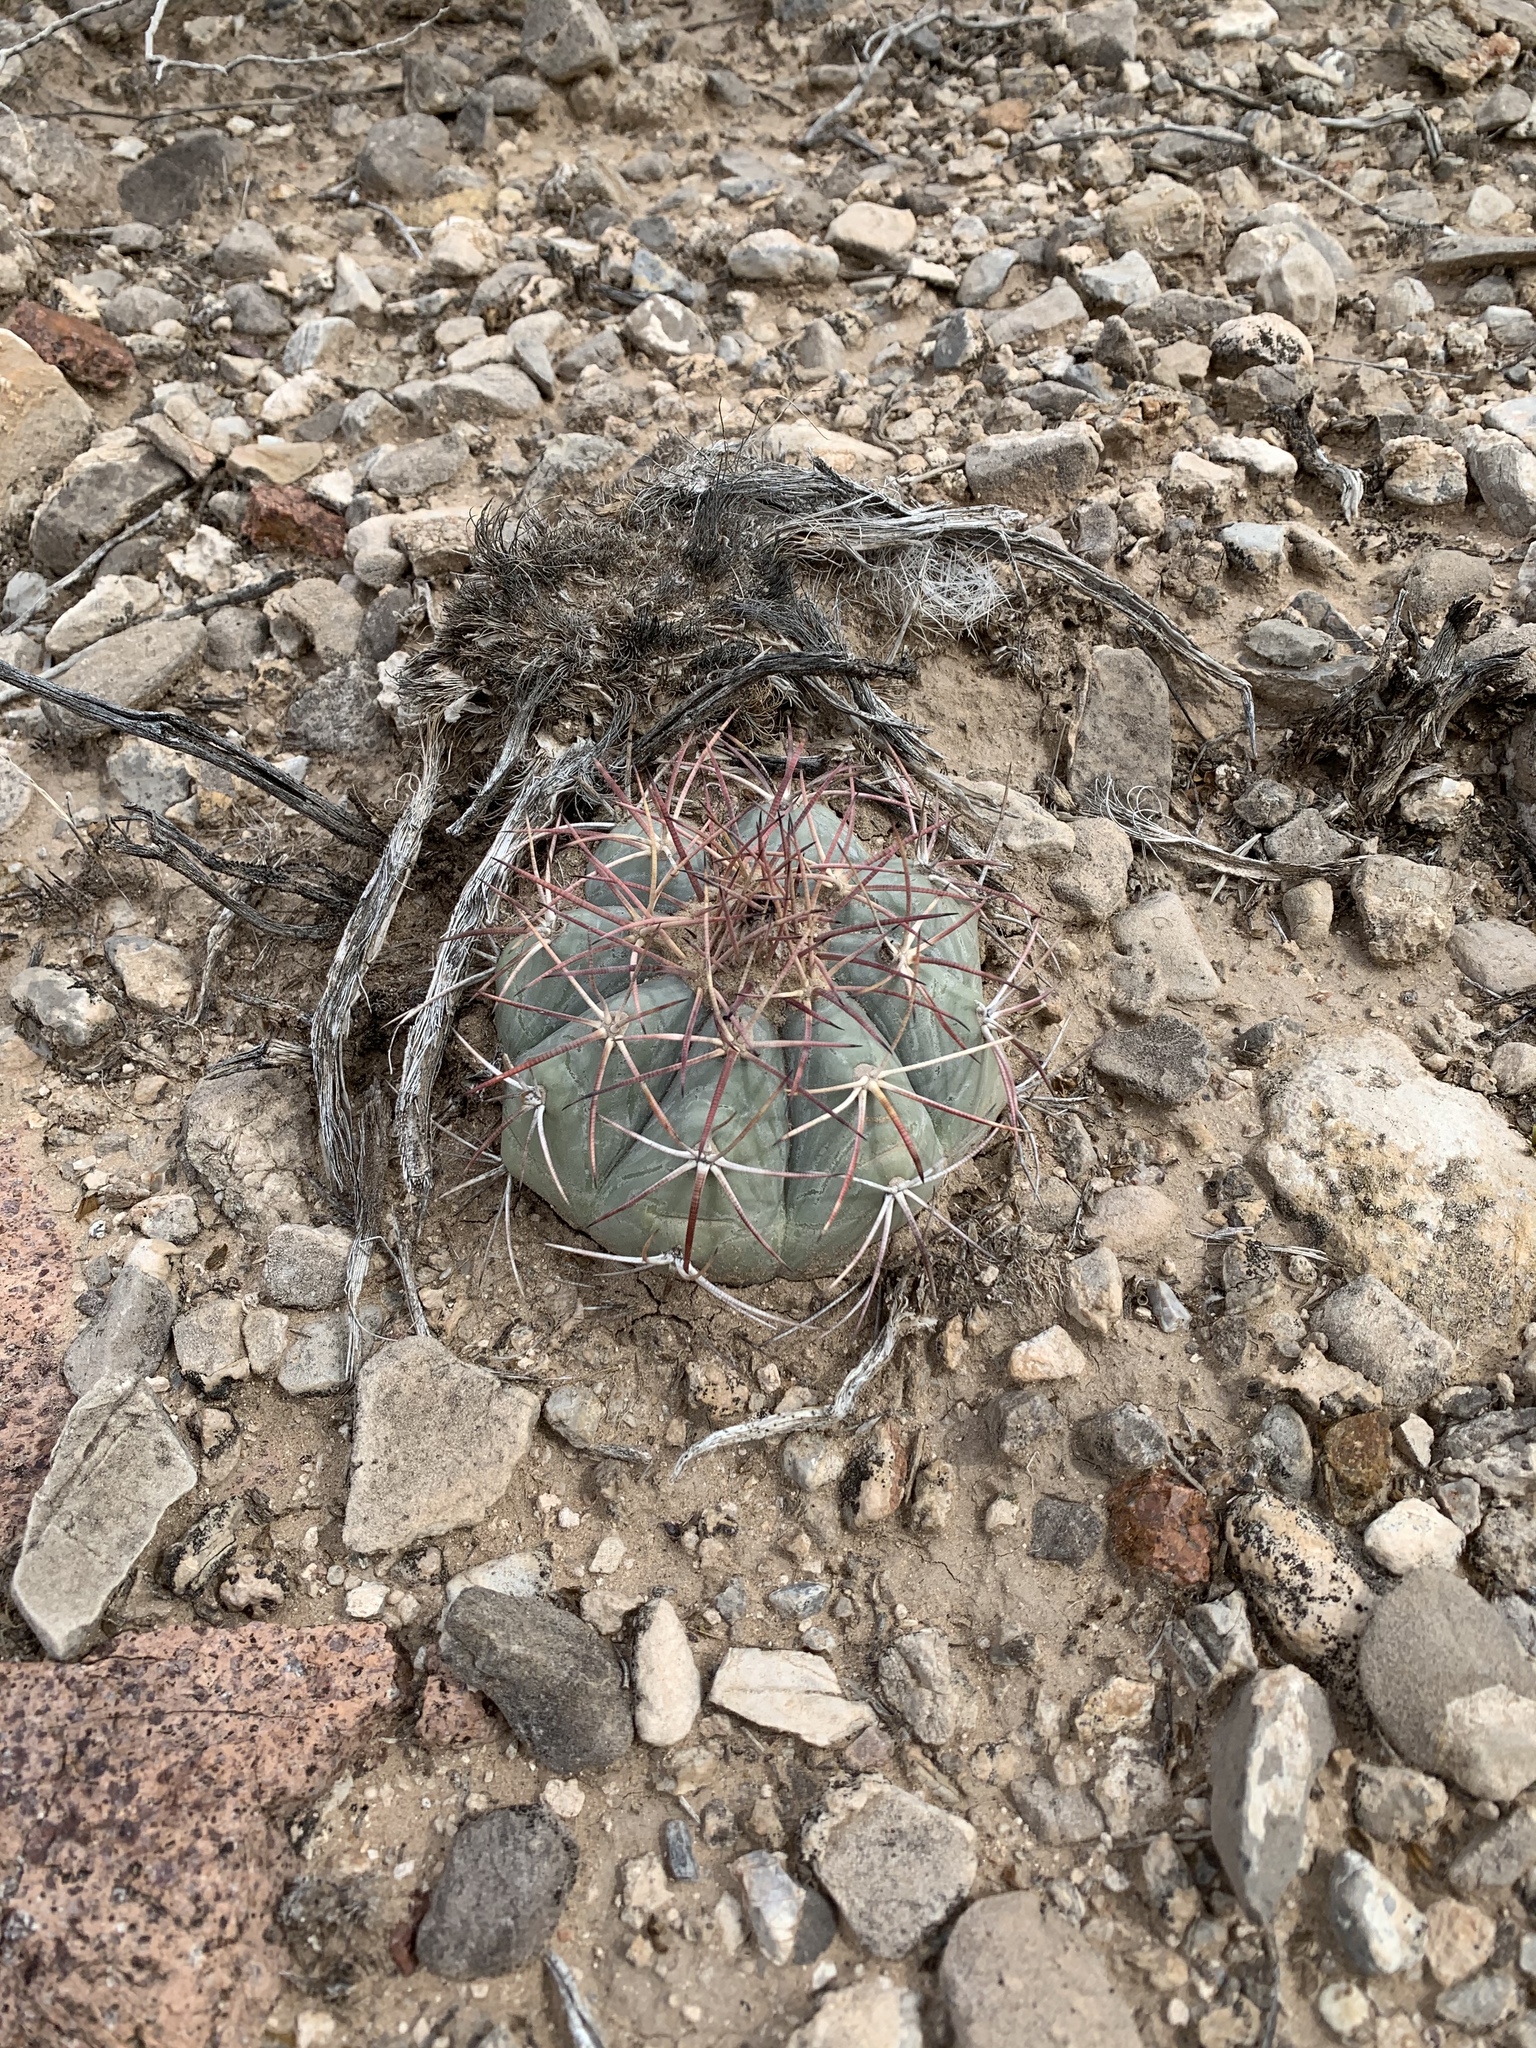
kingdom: Plantae
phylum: Tracheophyta
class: Magnoliopsida
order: Caryophyllales
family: Cactaceae
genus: Echinocactus
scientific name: Echinocactus horizonthalonius
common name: Devilshead
